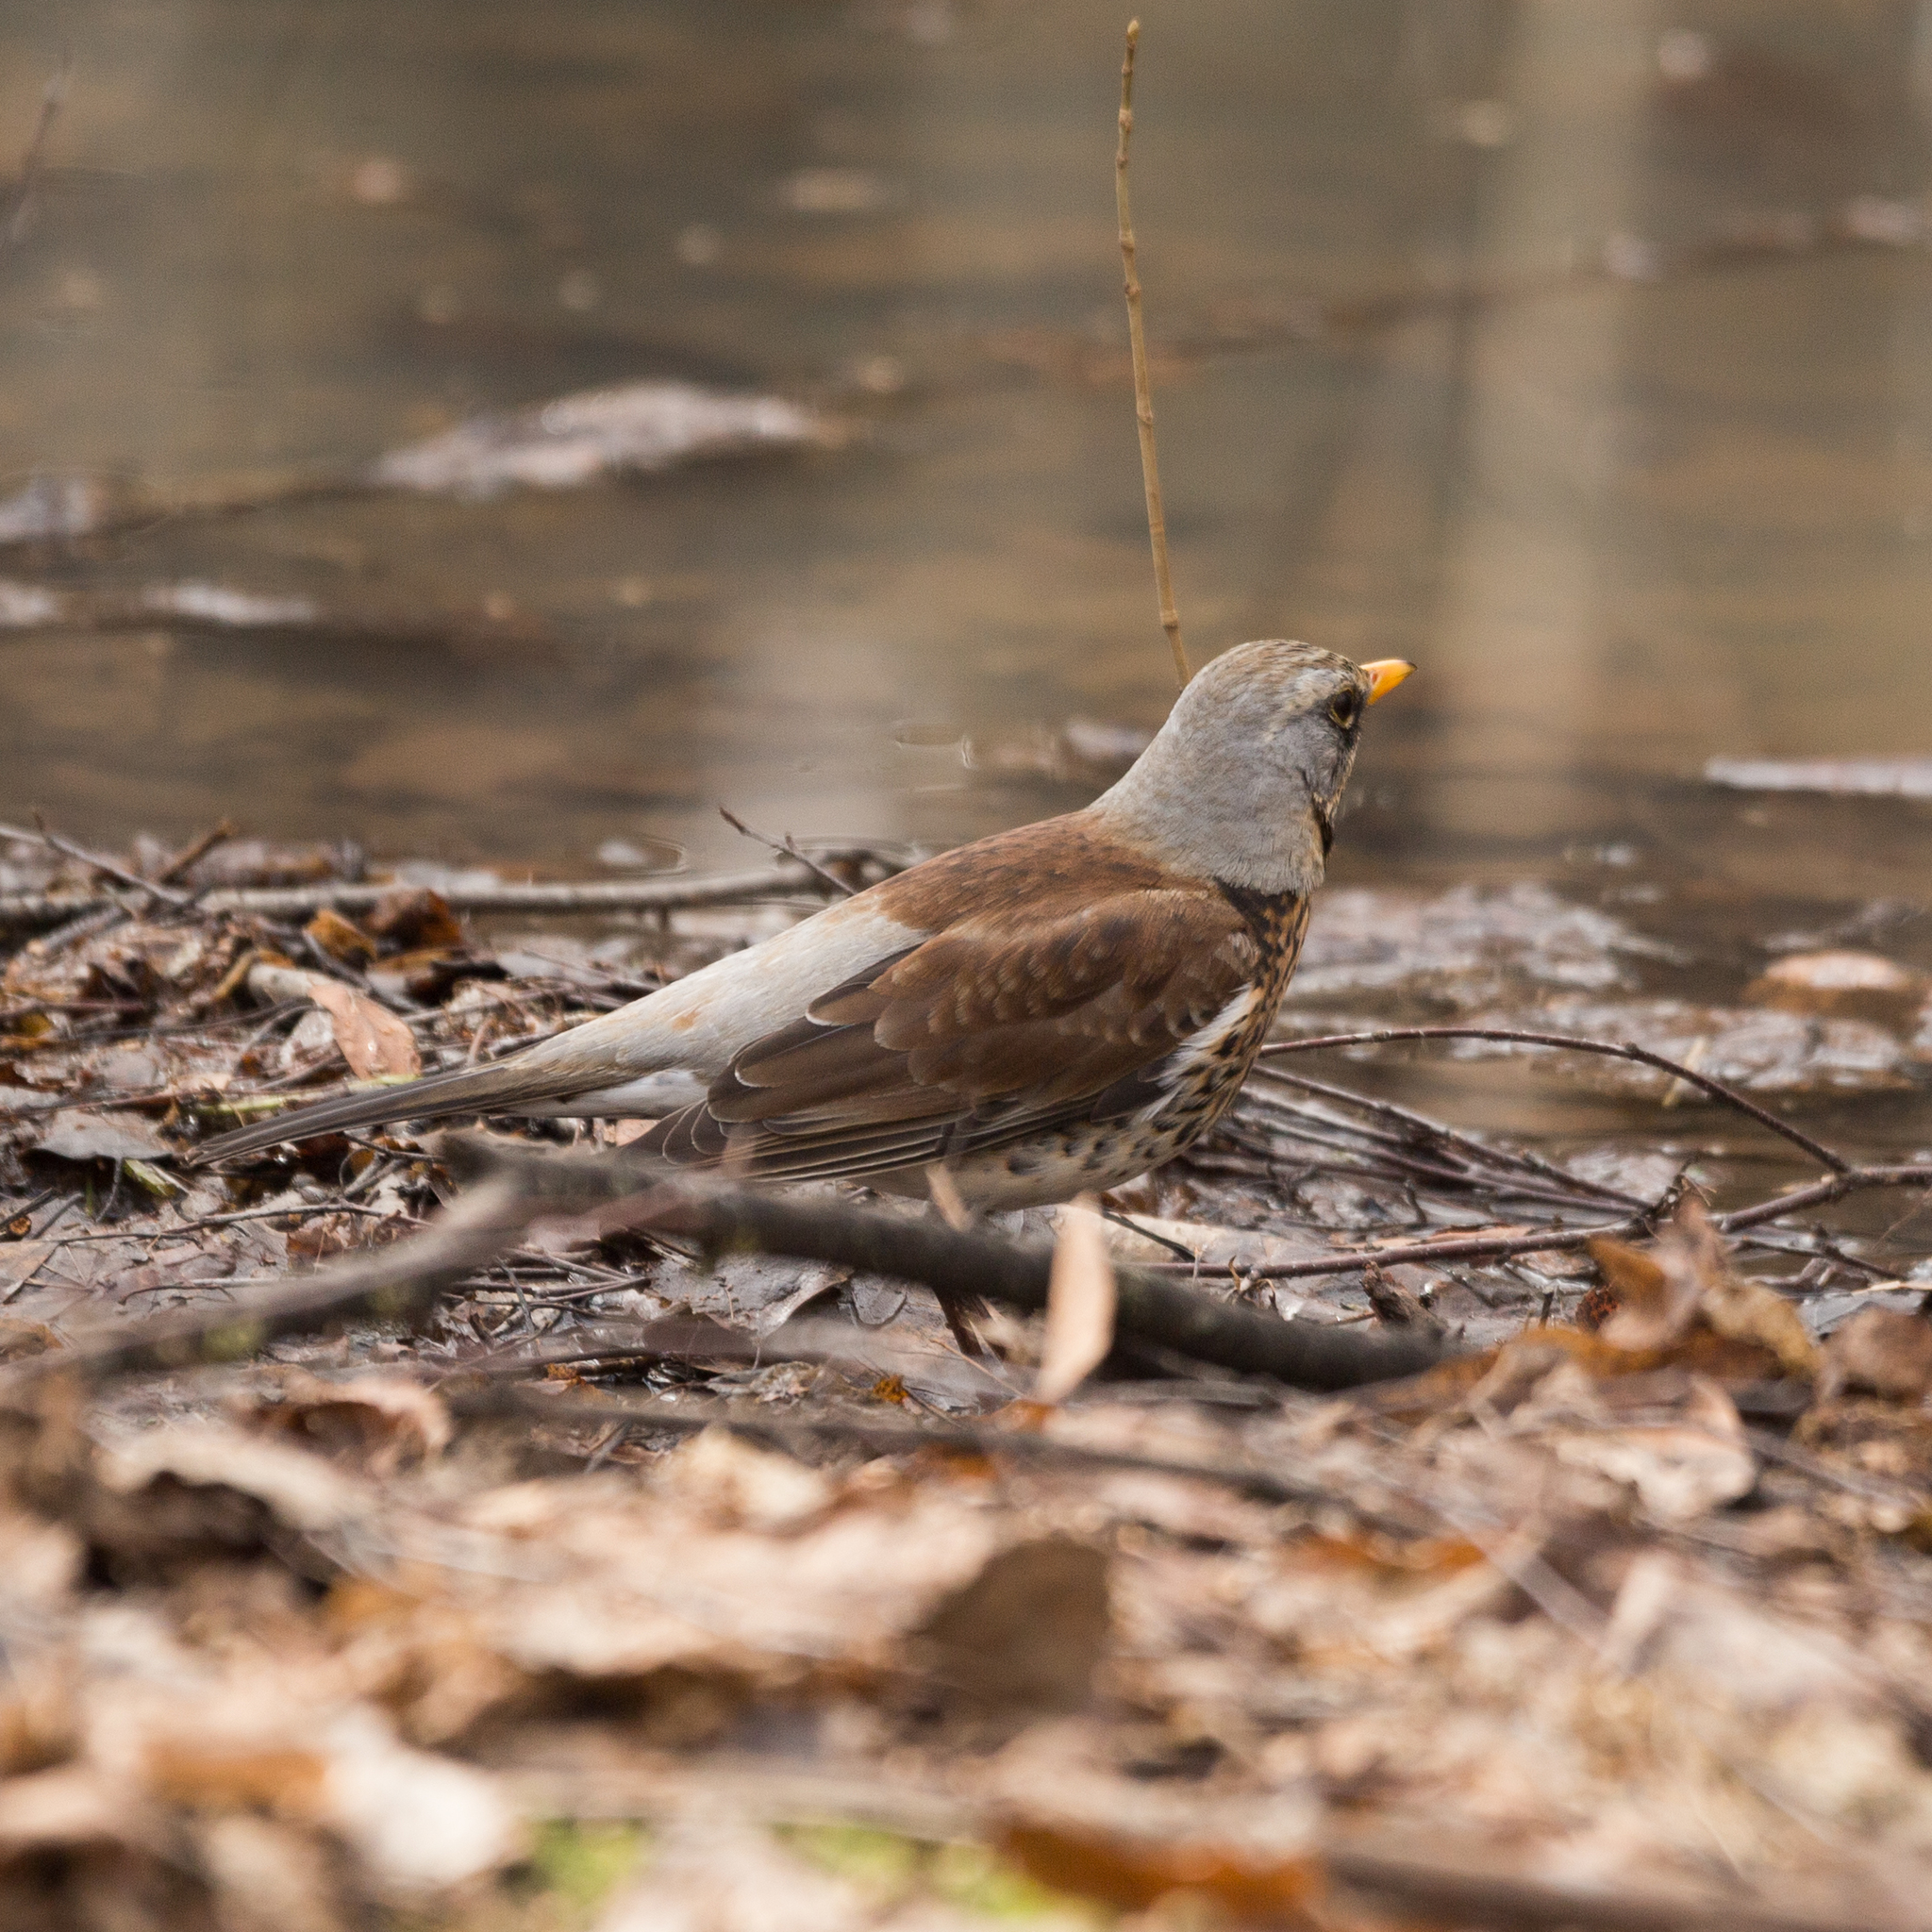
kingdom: Animalia
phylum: Chordata
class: Aves
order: Passeriformes
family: Turdidae
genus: Turdus
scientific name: Turdus pilaris
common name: Fieldfare
